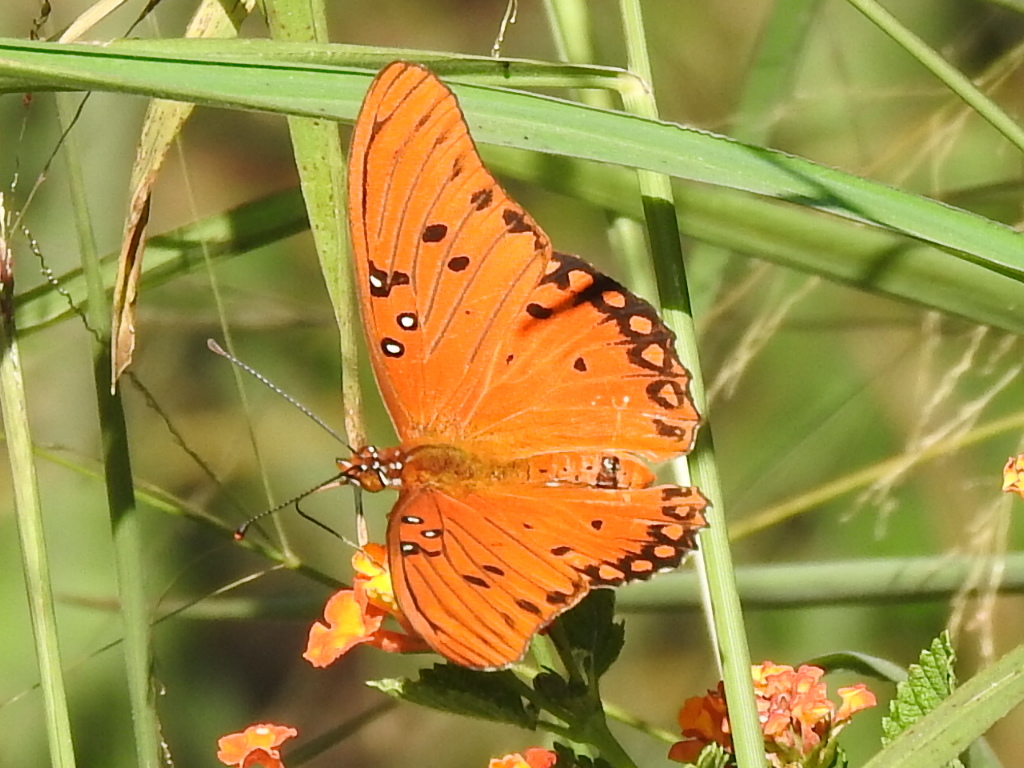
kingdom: Animalia
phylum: Arthropoda
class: Insecta
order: Lepidoptera
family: Nymphalidae
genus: Dione
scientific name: Dione vanillae
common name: Gulf fritillary
